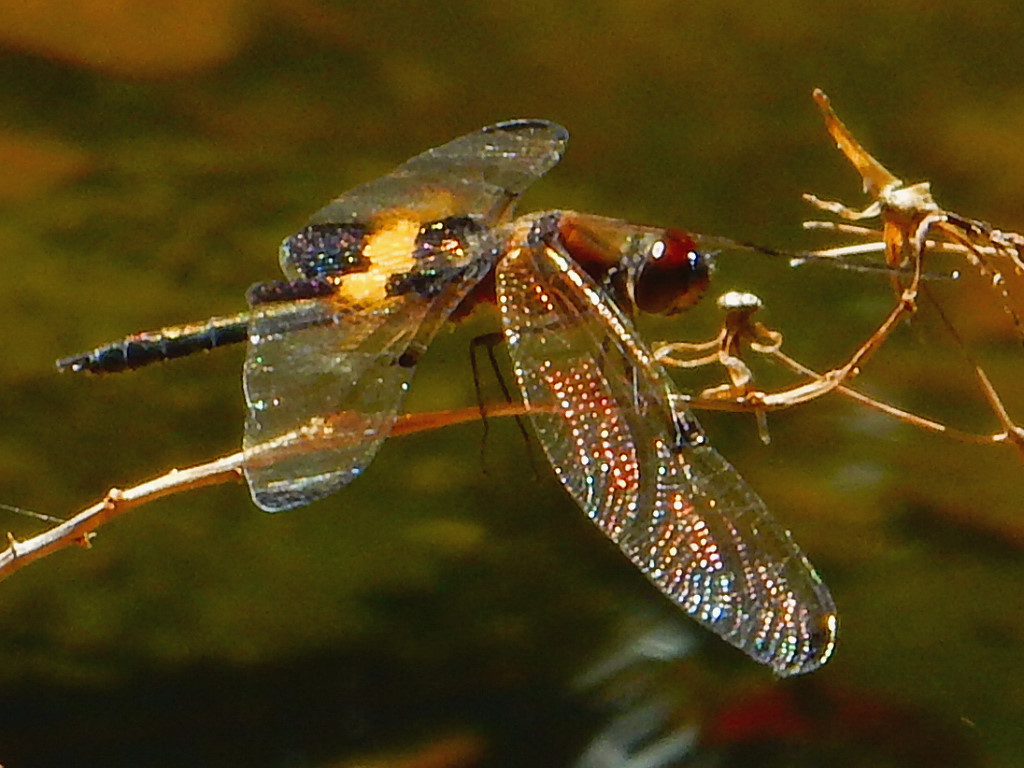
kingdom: Animalia
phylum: Arthropoda
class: Insecta
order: Odonata
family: Libellulidae
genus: Rhyothemis
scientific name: Rhyothemis phyllis
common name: Yellow-barred flutterer
